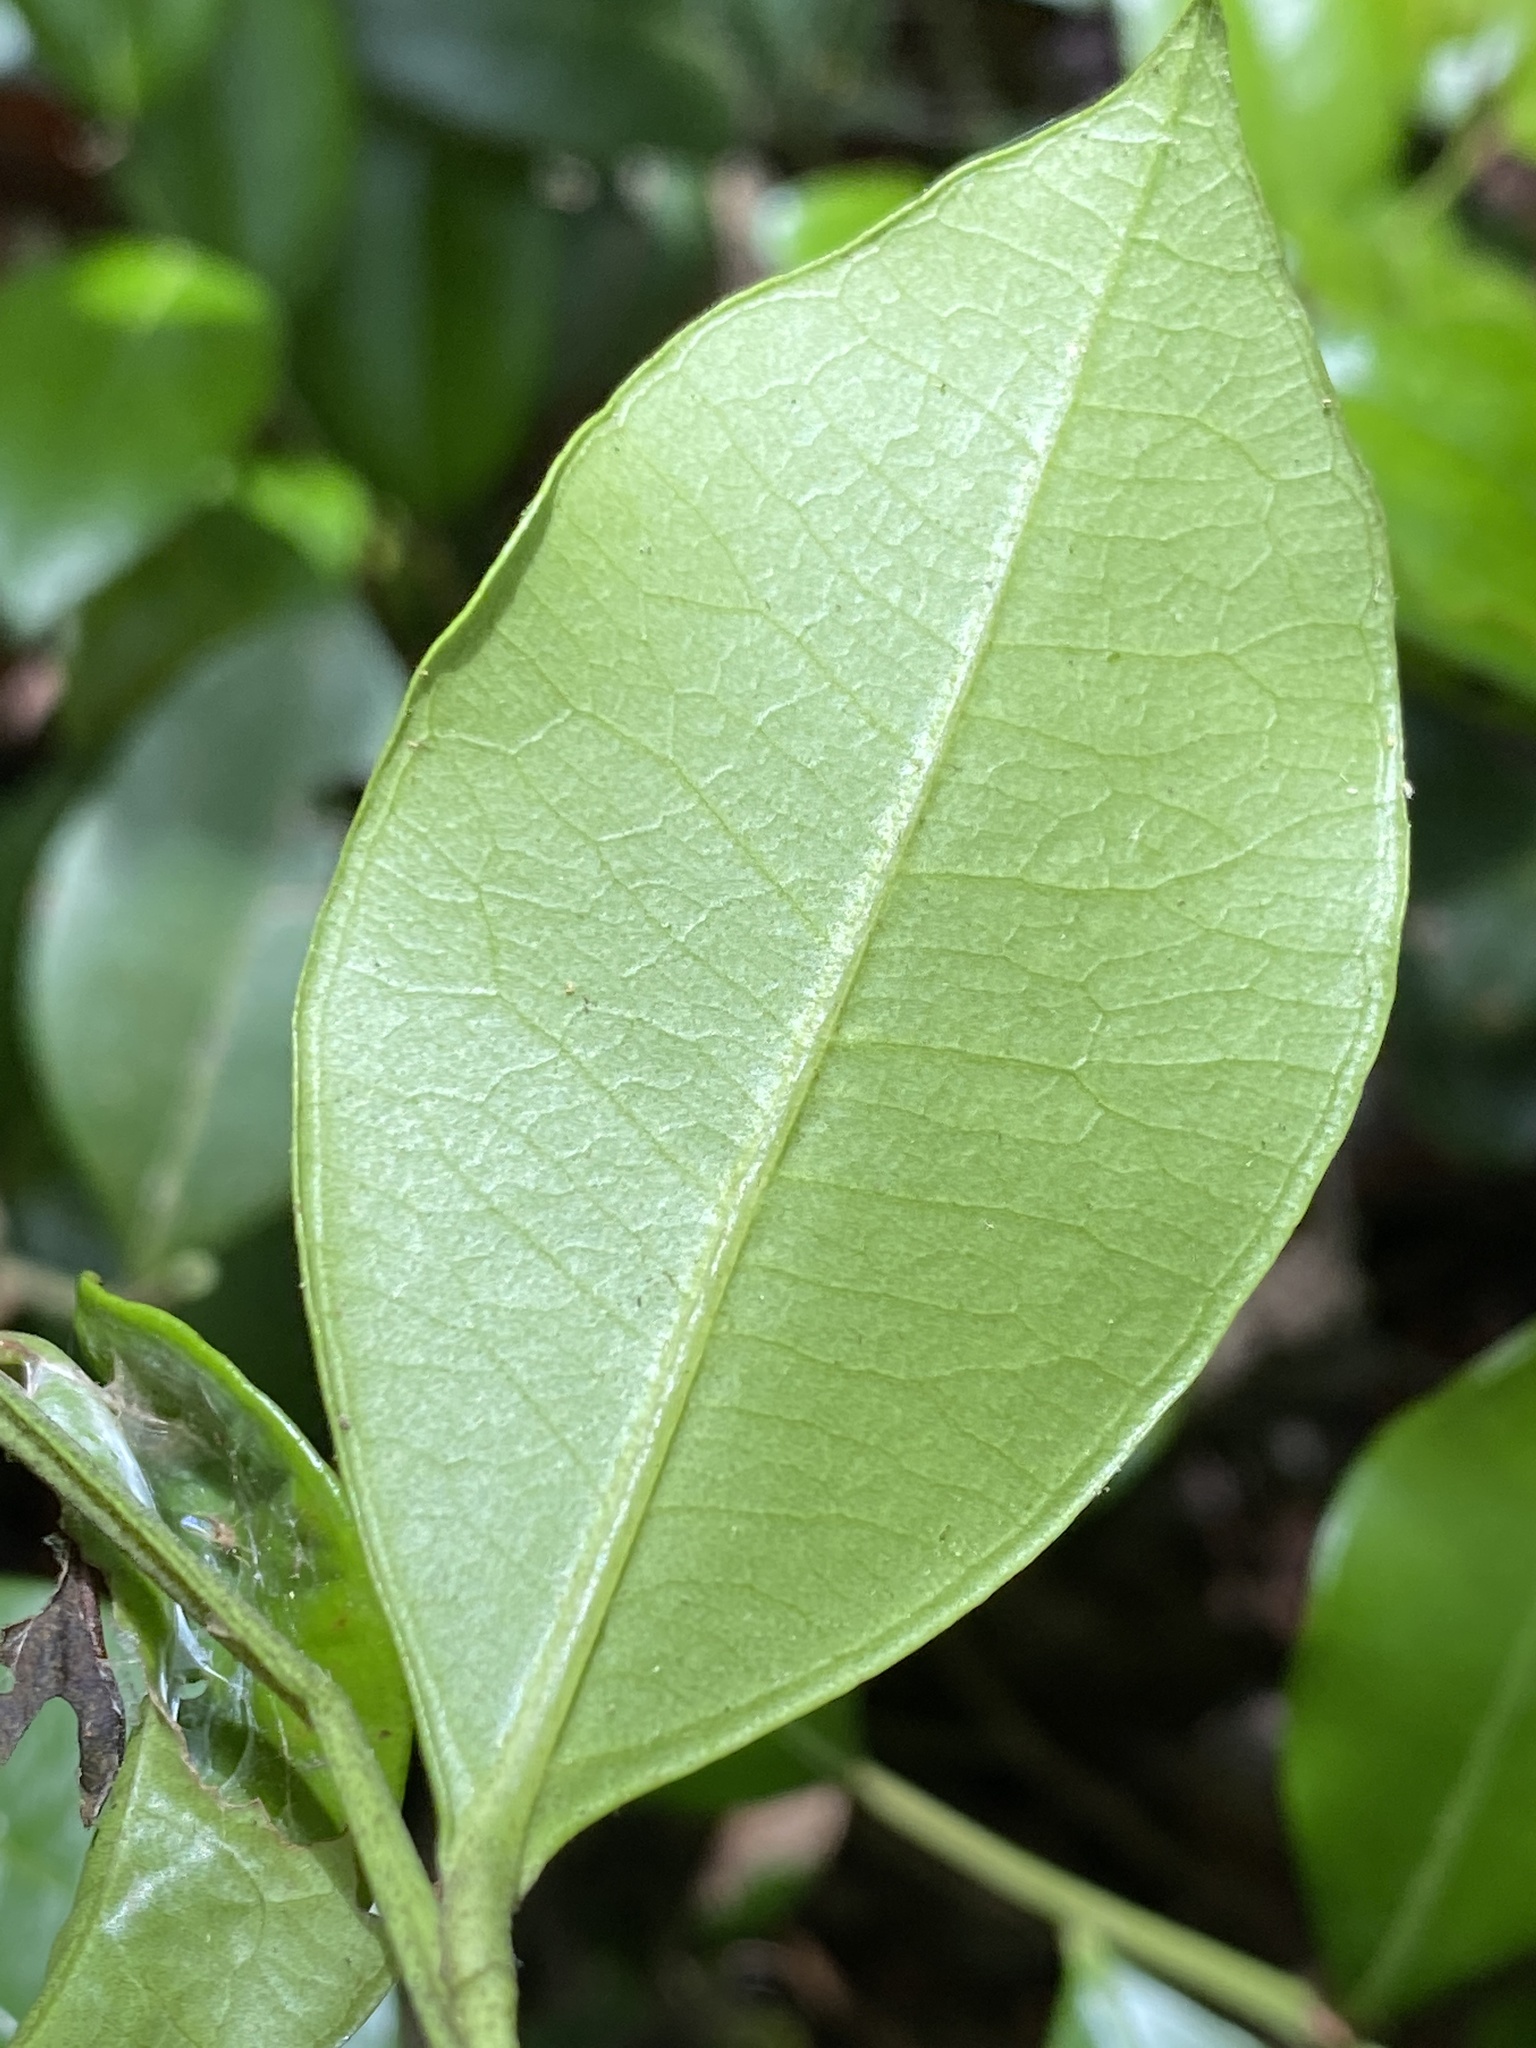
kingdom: Plantae
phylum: Tracheophyta
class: Magnoliopsida
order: Ericales
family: Ericaceae
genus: Lyonia
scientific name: Lyonia lucida
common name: Fetterbush
